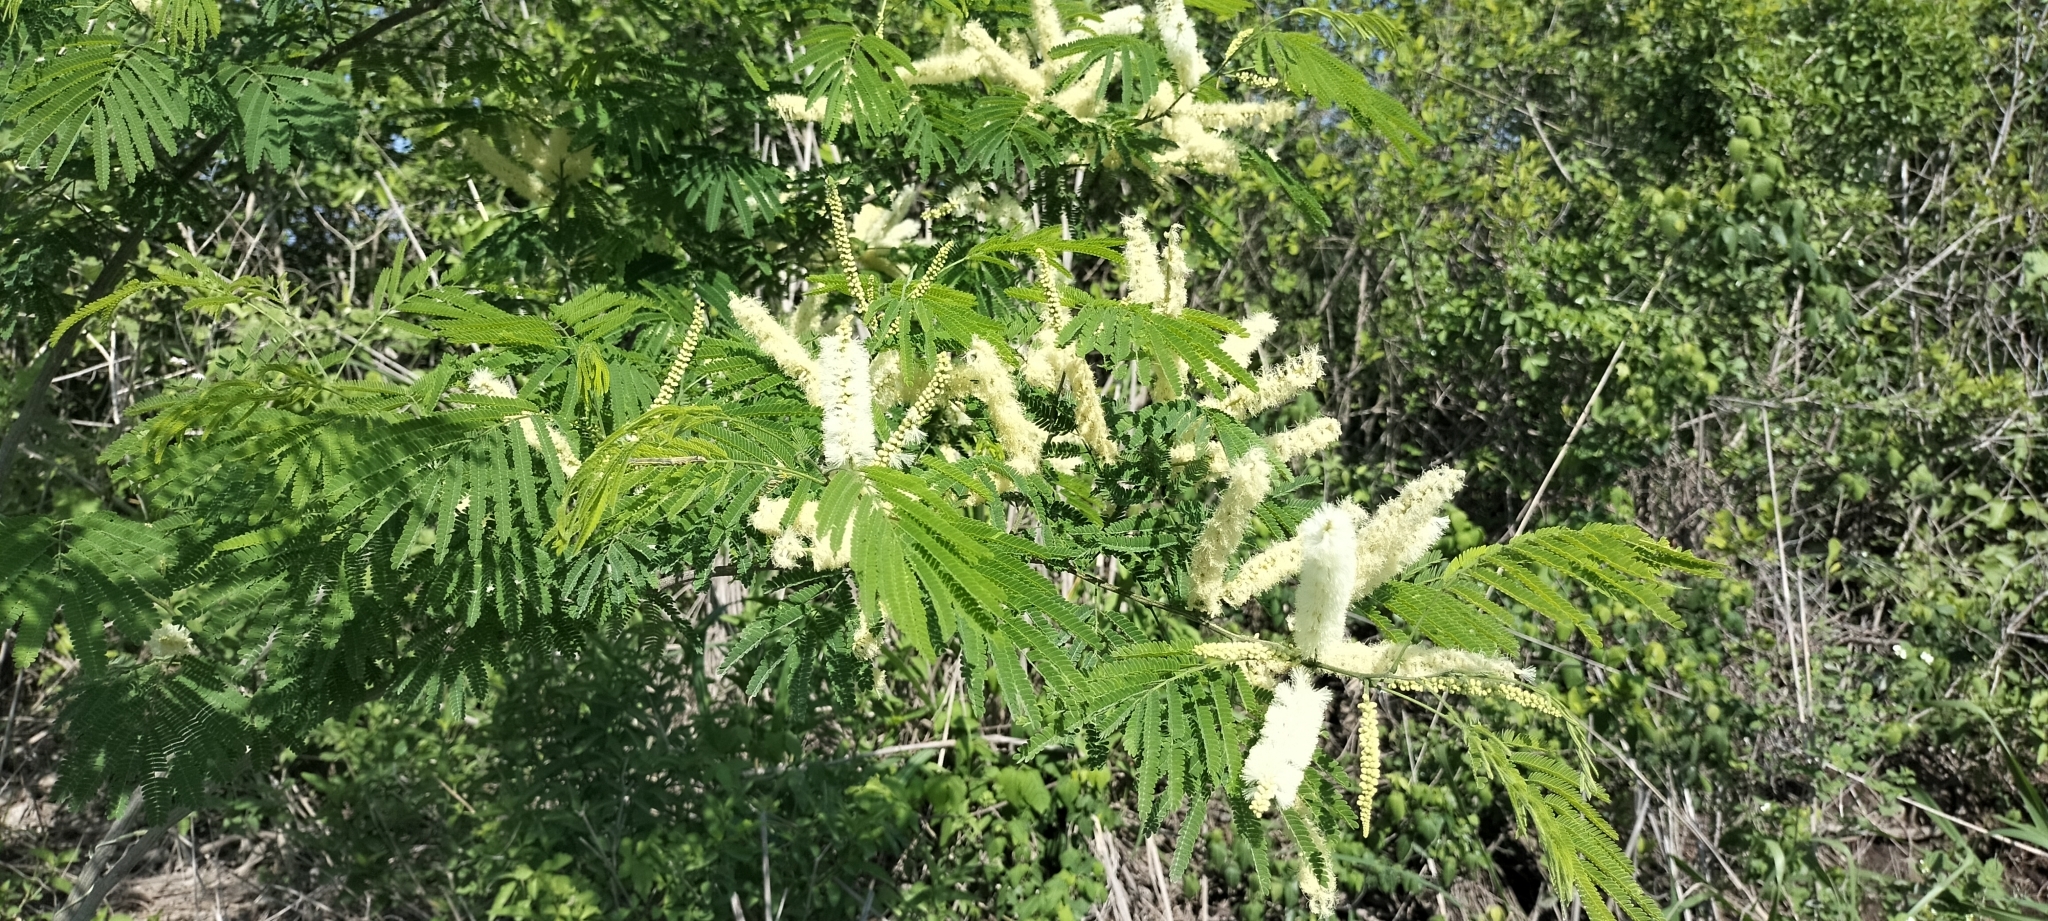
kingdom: Plantae
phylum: Tracheophyta
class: Magnoliopsida
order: Fabales
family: Fabaceae
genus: Mariosousa
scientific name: Mariosousa coulteri
